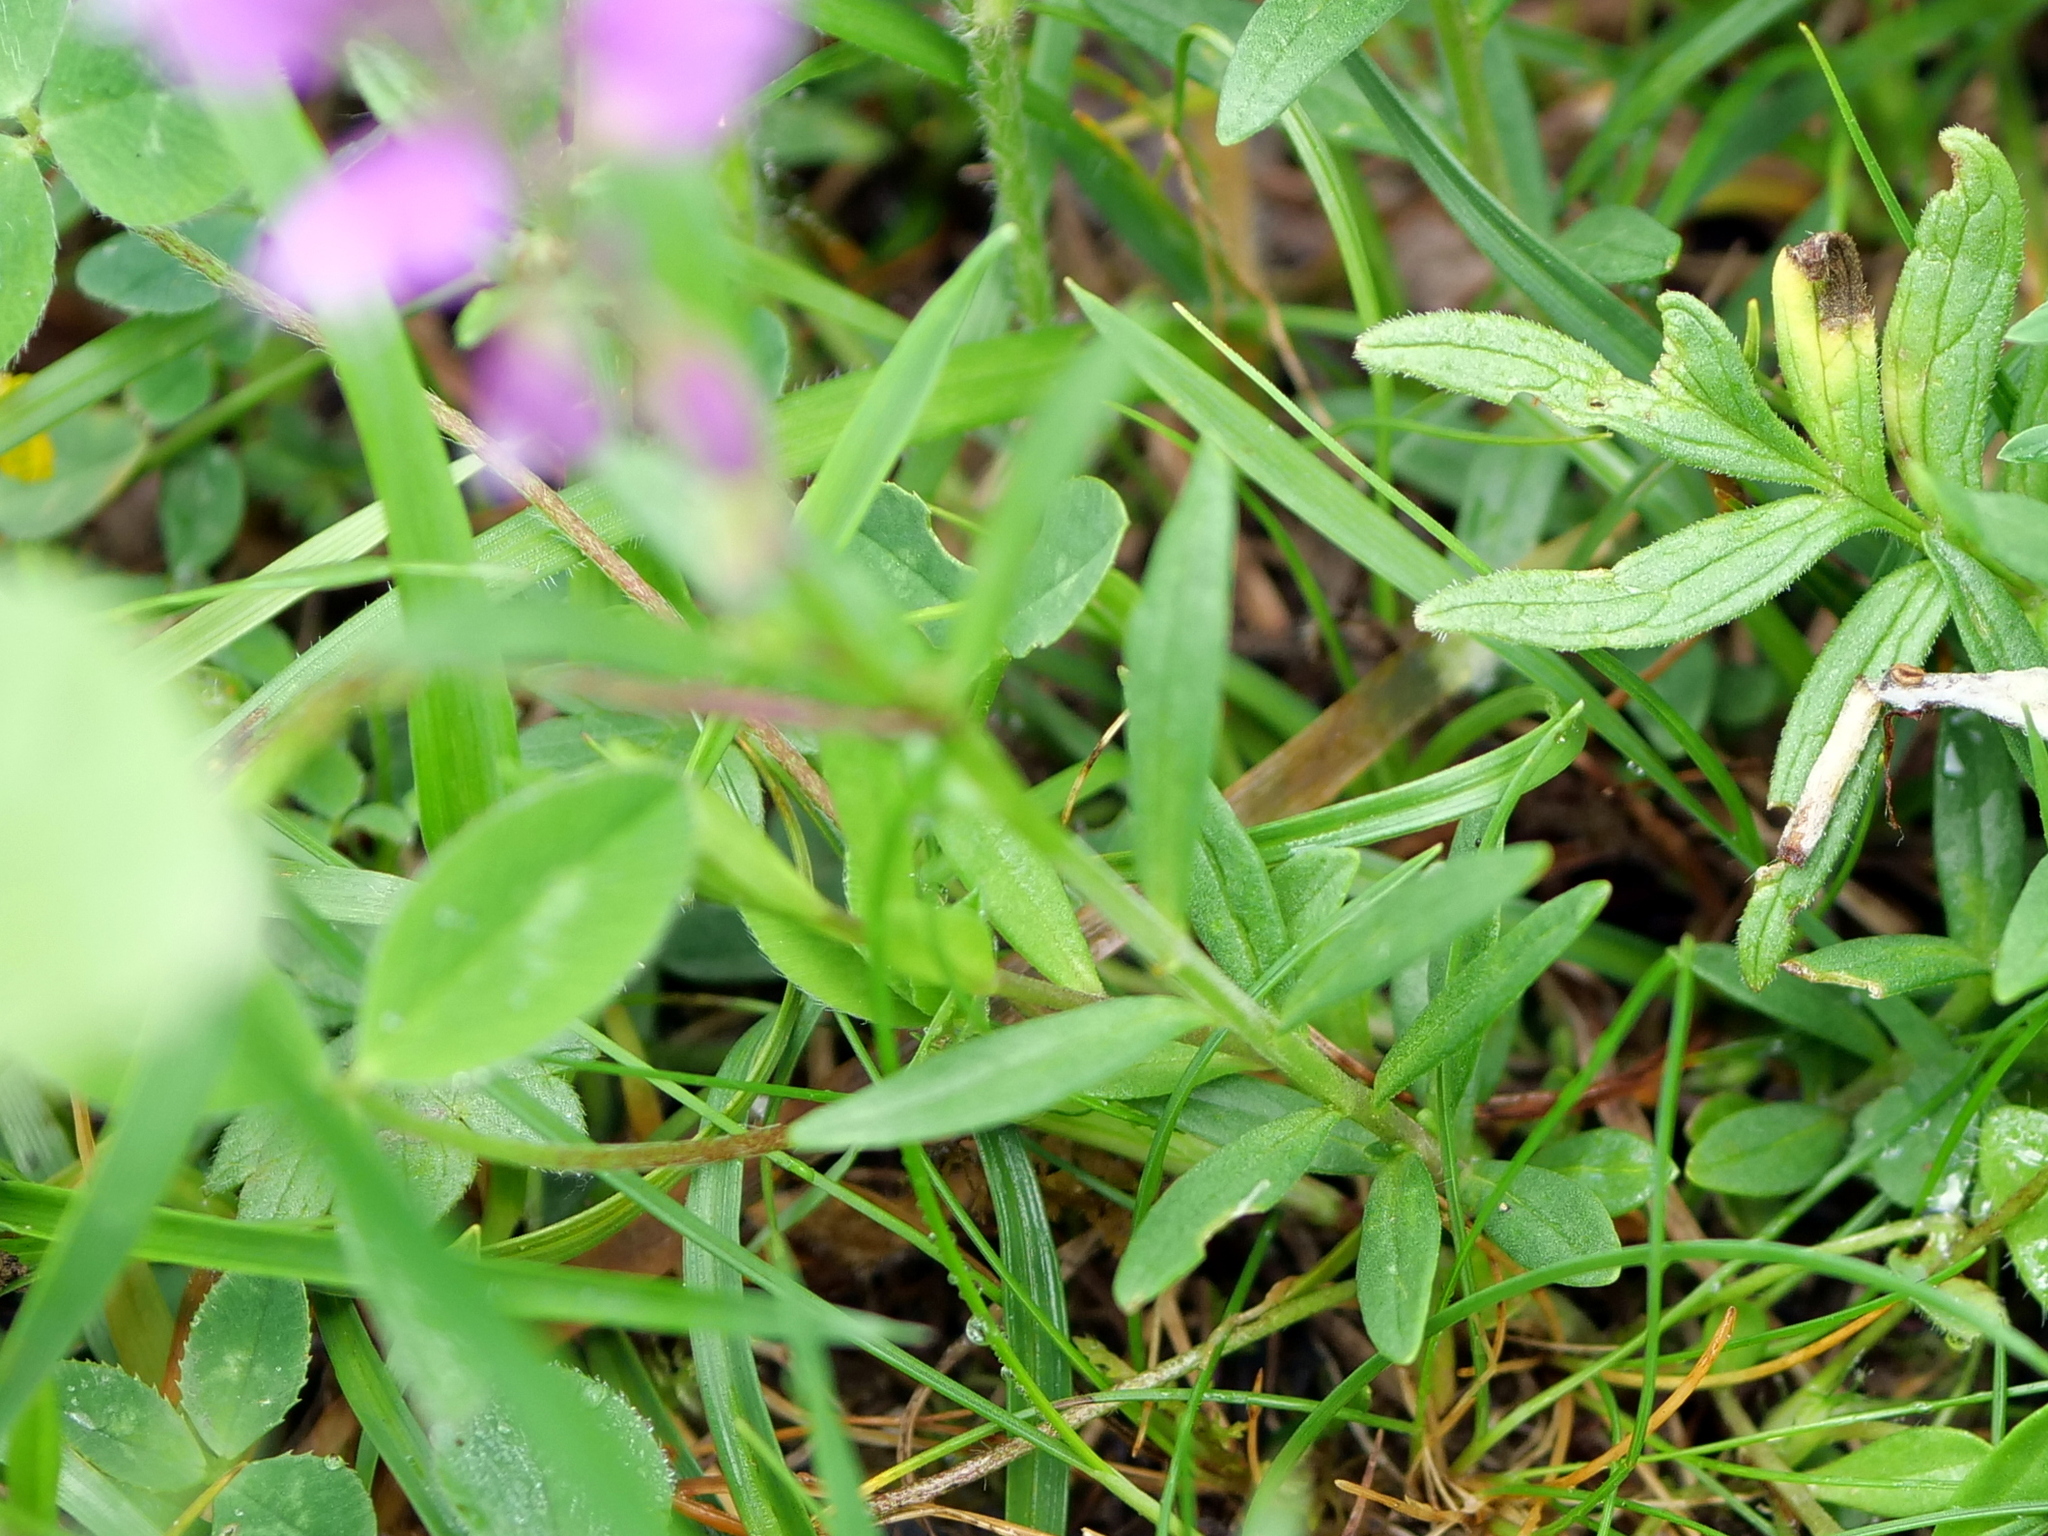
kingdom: Plantae
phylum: Tracheophyta
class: Magnoliopsida
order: Fabales
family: Polygalaceae
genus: Polygala
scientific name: Polygala comosa
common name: Tufted milkwort
